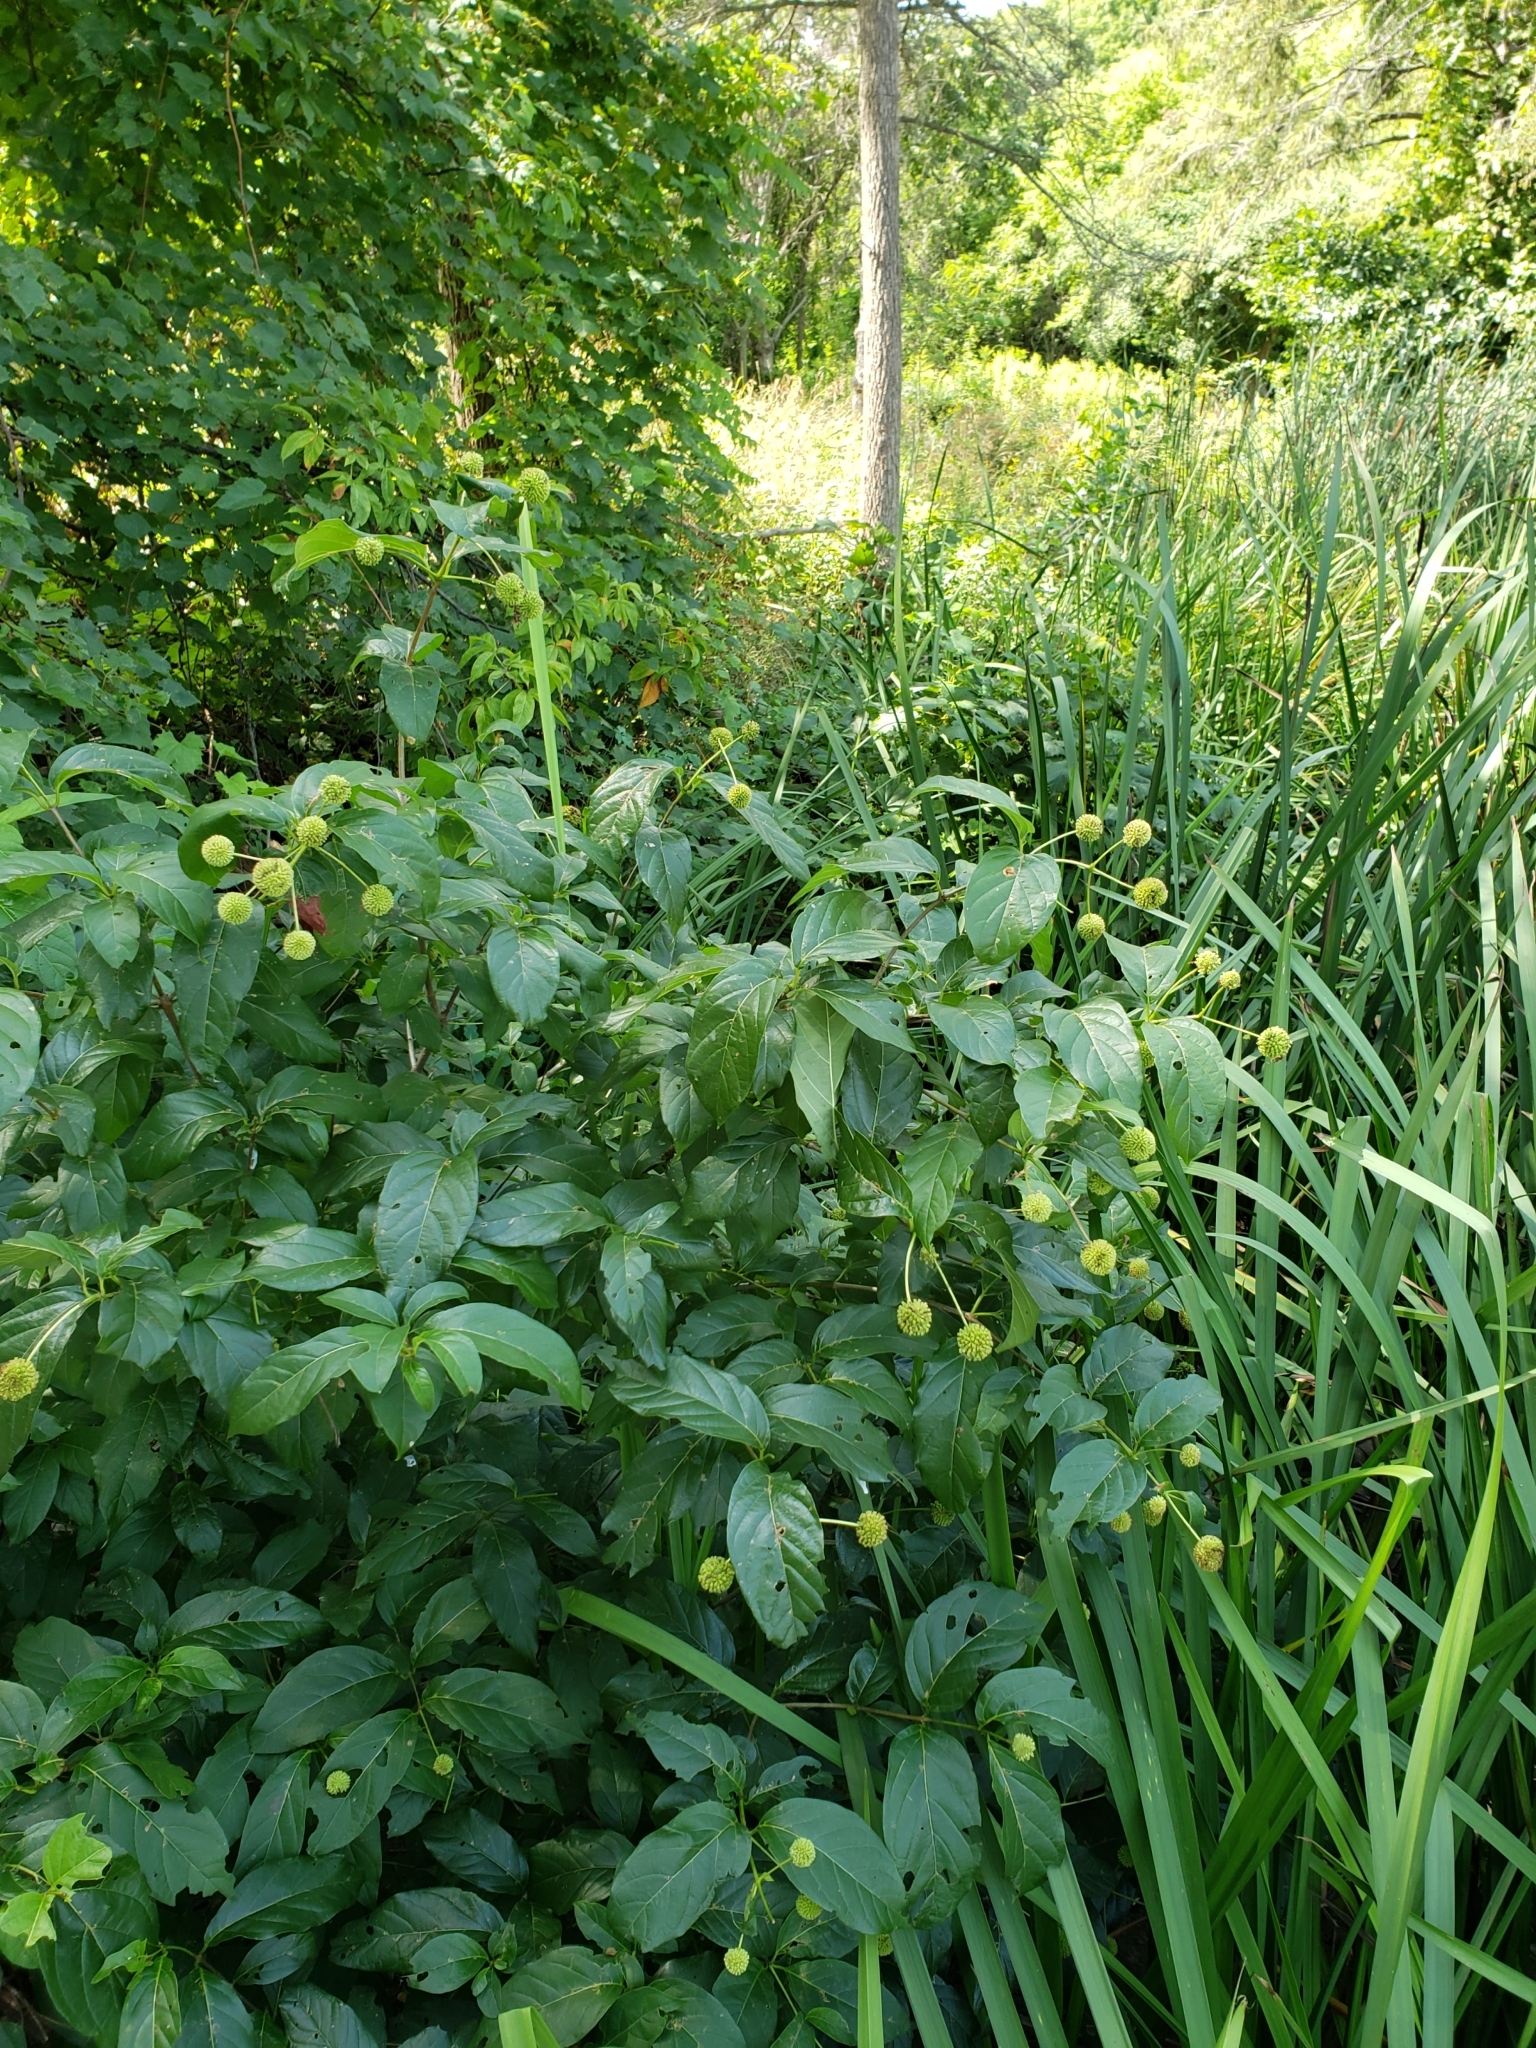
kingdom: Plantae
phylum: Tracheophyta
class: Magnoliopsida
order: Gentianales
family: Rubiaceae
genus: Cephalanthus
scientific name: Cephalanthus occidentalis
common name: Button-willow
